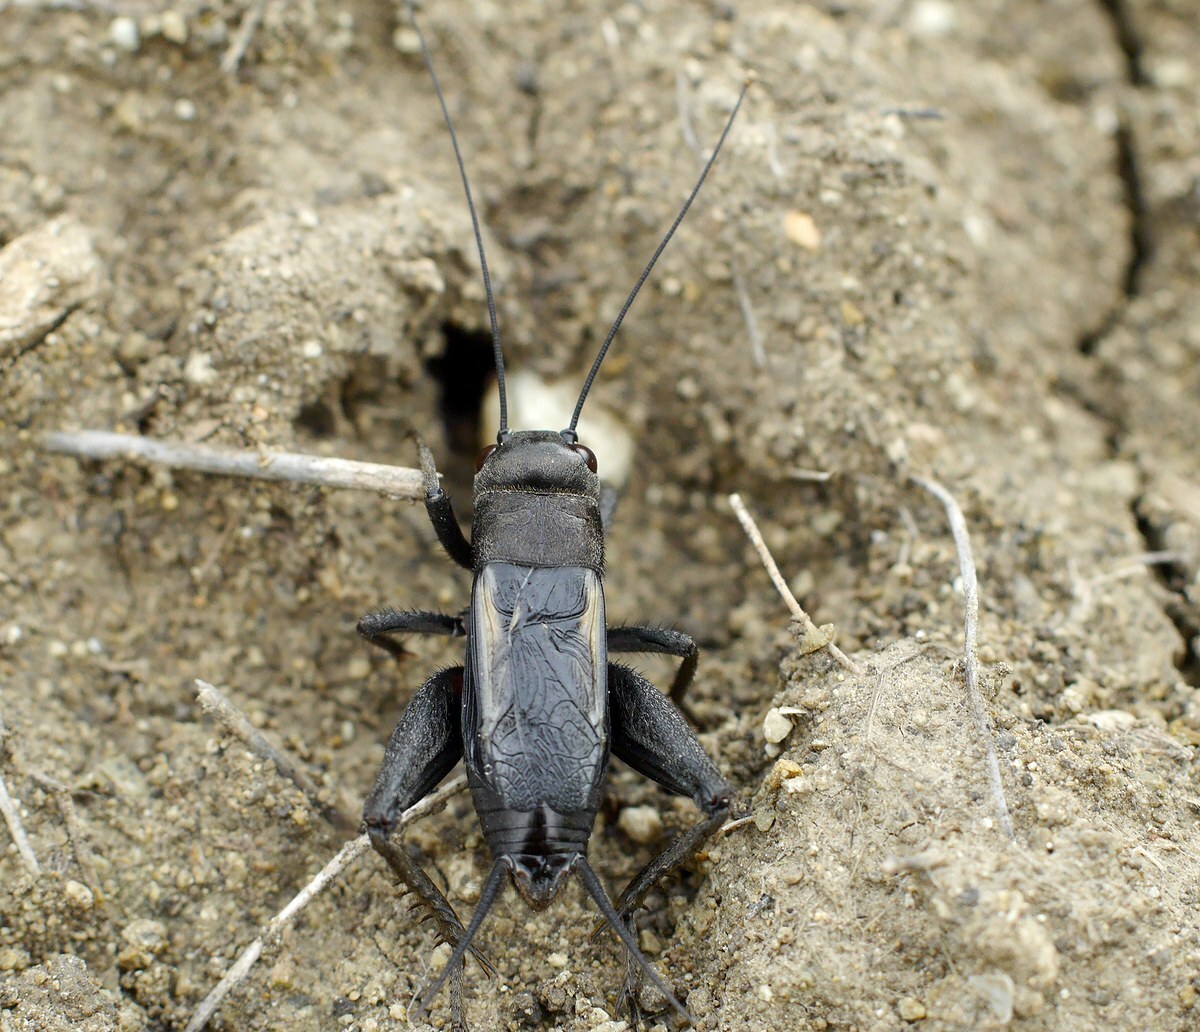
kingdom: Animalia
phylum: Arthropoda
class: Insecta
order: Orthoptera
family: Gryllidae
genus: Melanogryllus
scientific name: Melanogryllus desertus
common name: Desert cricket
